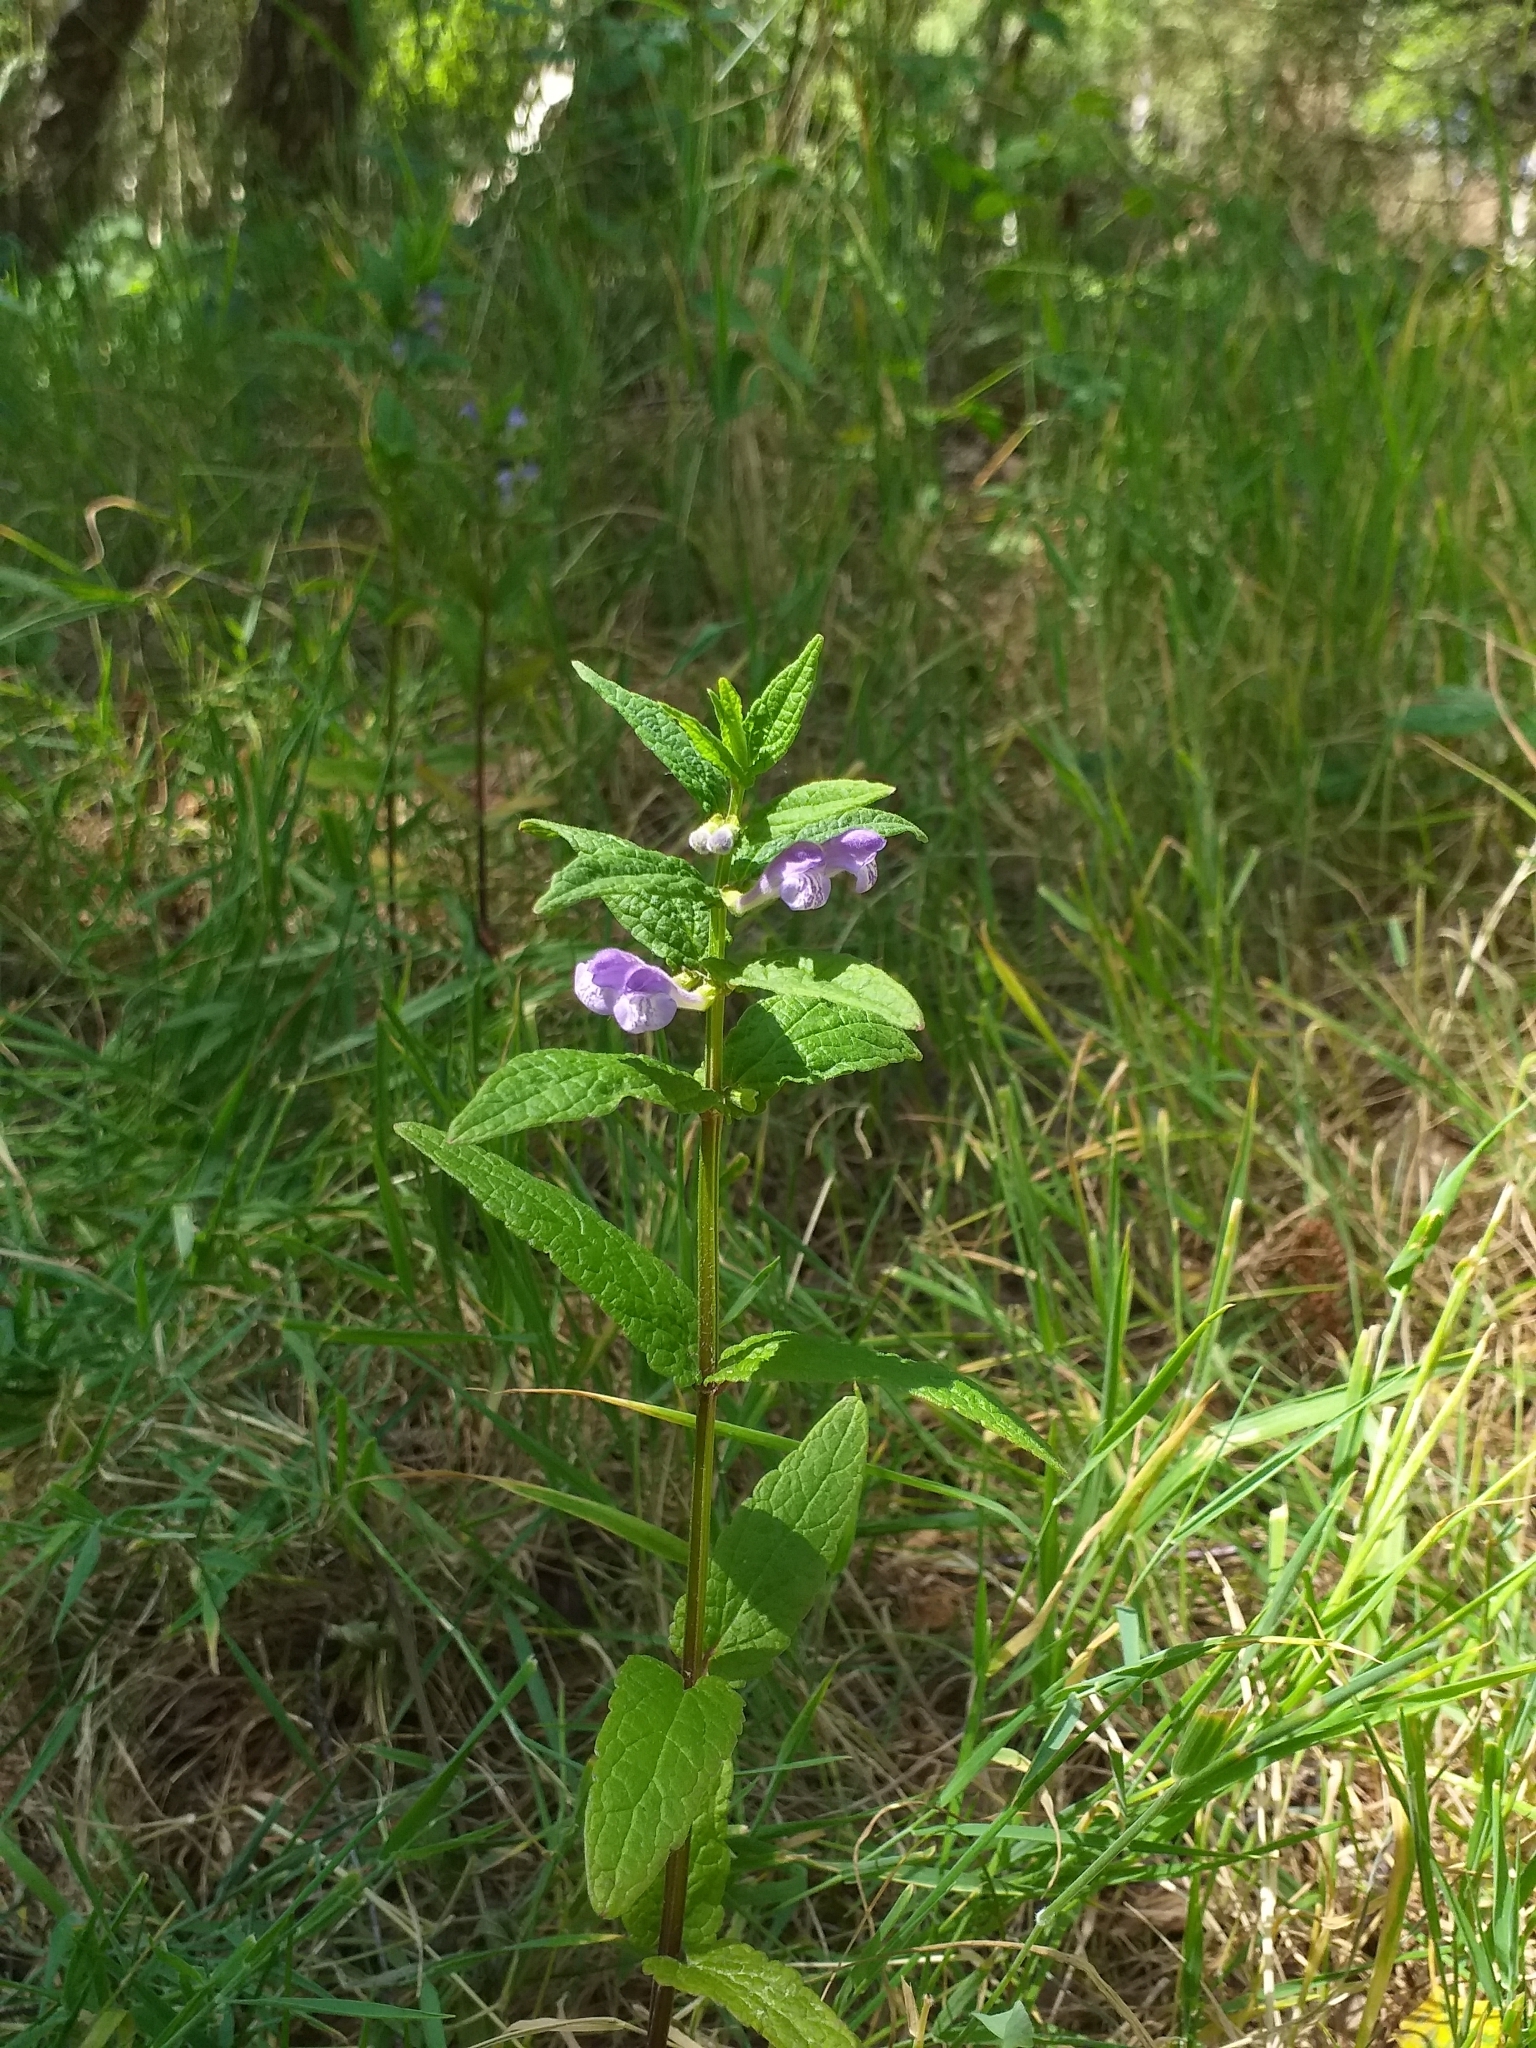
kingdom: Plantae
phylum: Tracheophyta
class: Magnoliopsida
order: Lamiales
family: Lamiaceae
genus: Scutellaria
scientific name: Scutellaria galericulata
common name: Skullcap
